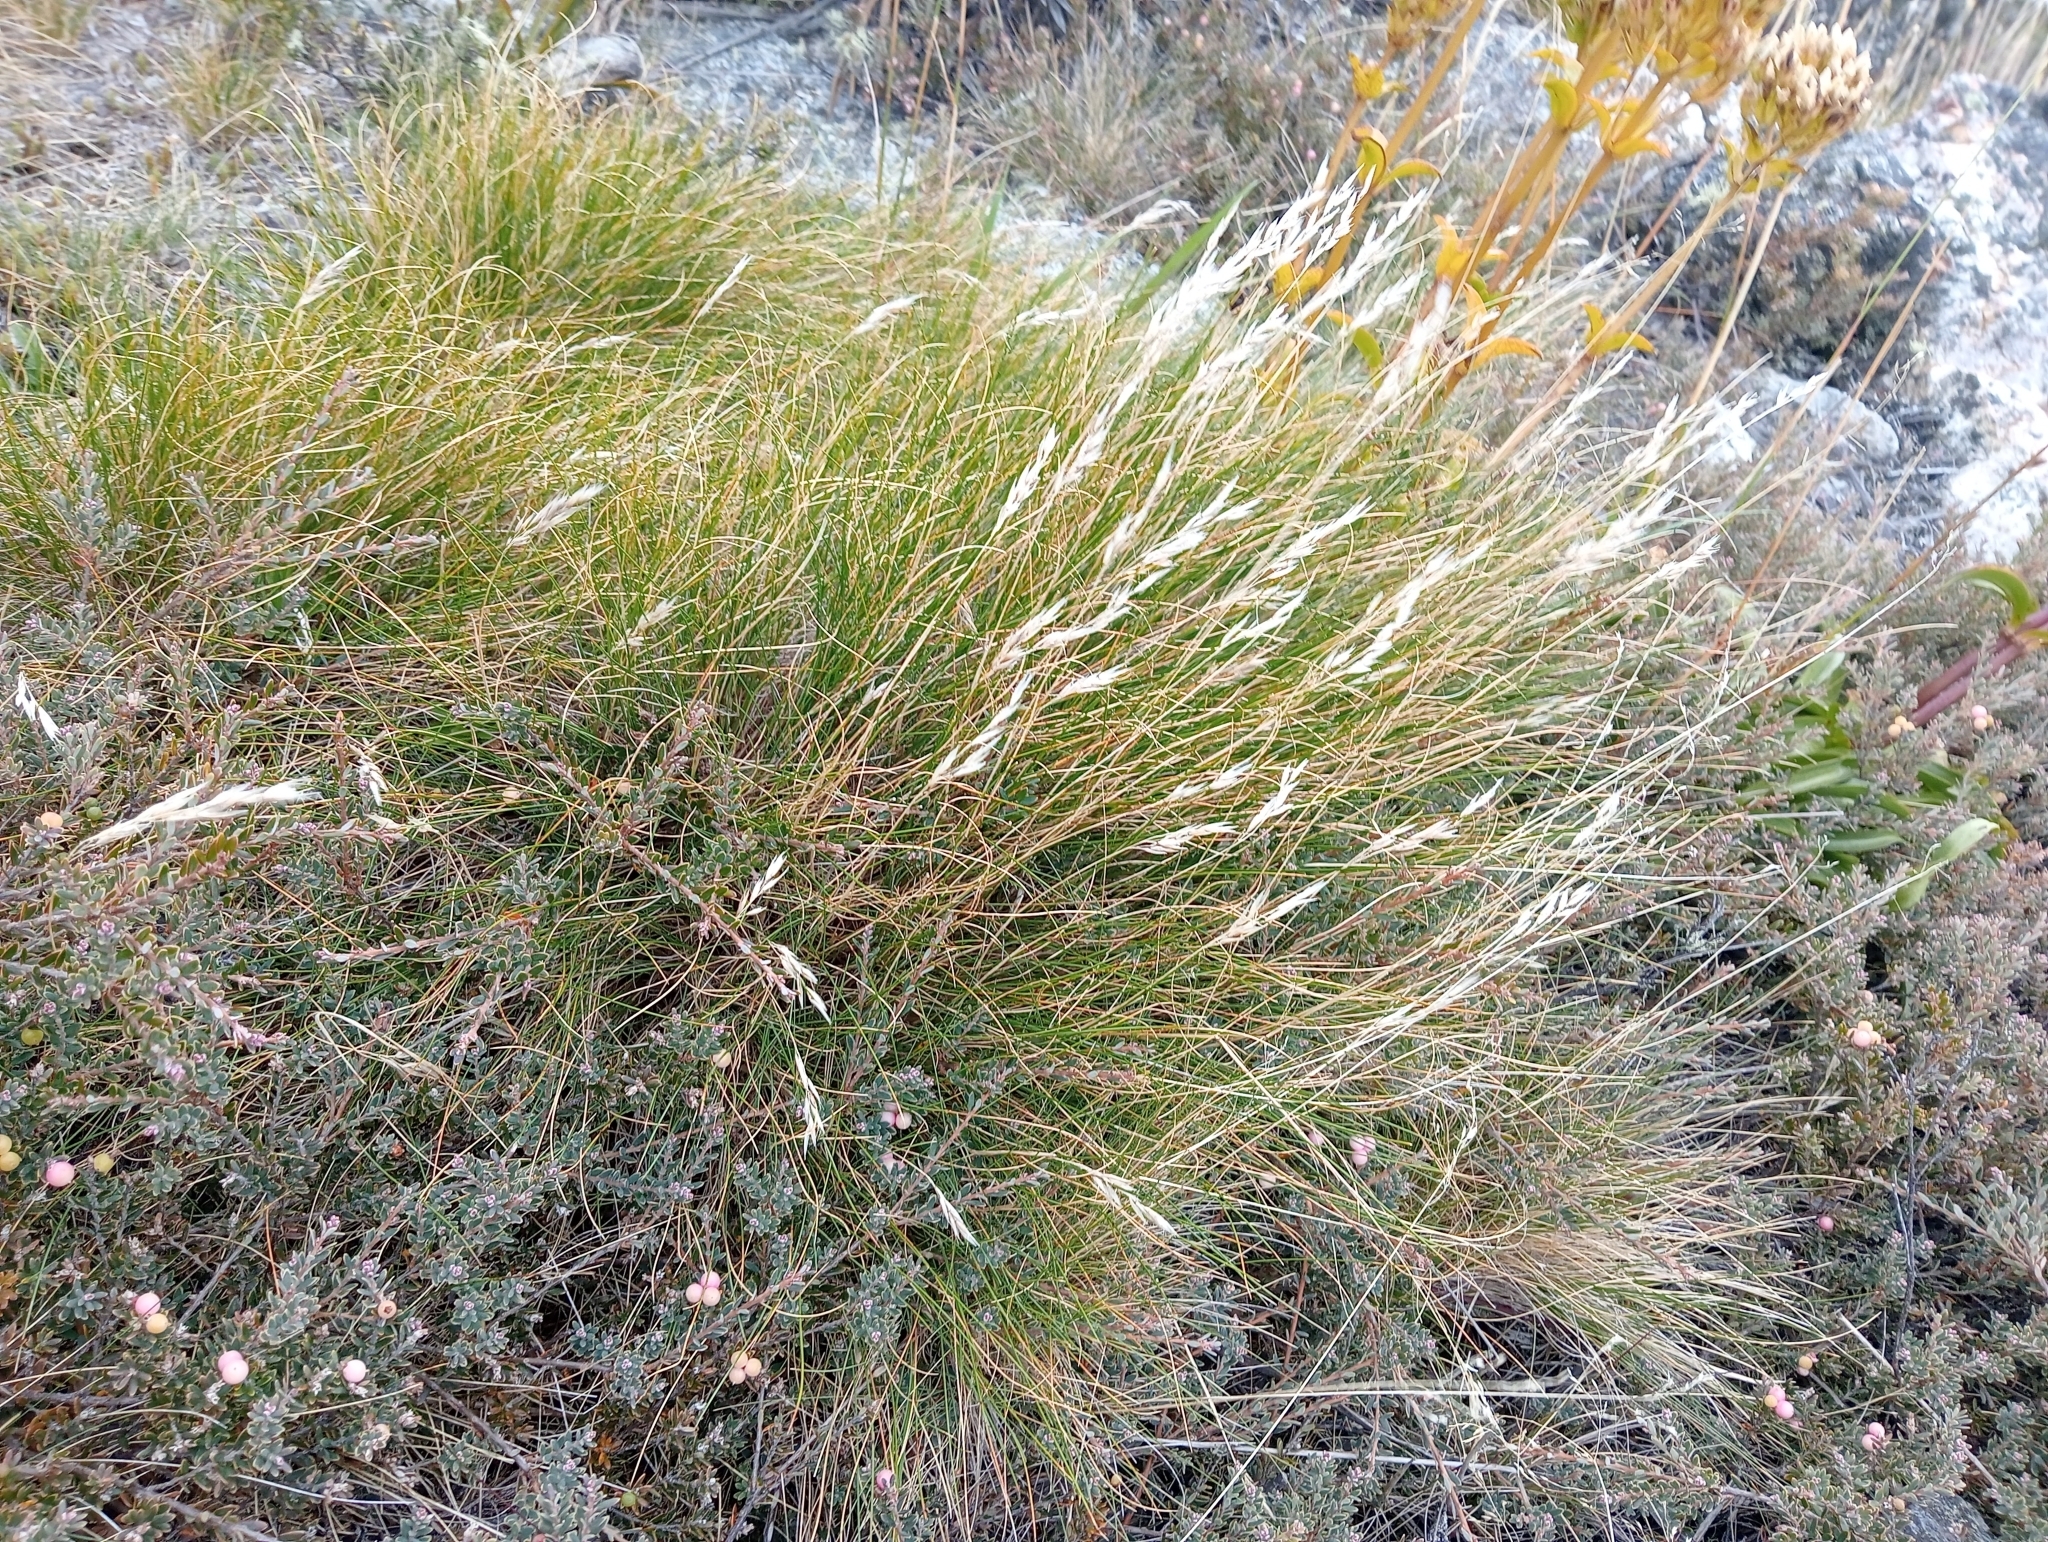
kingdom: Plantae
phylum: Tracheophyta
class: Liliopsida
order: Poales
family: Poaceae
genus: Rytidosperma
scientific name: Rytidosperma setifolium
